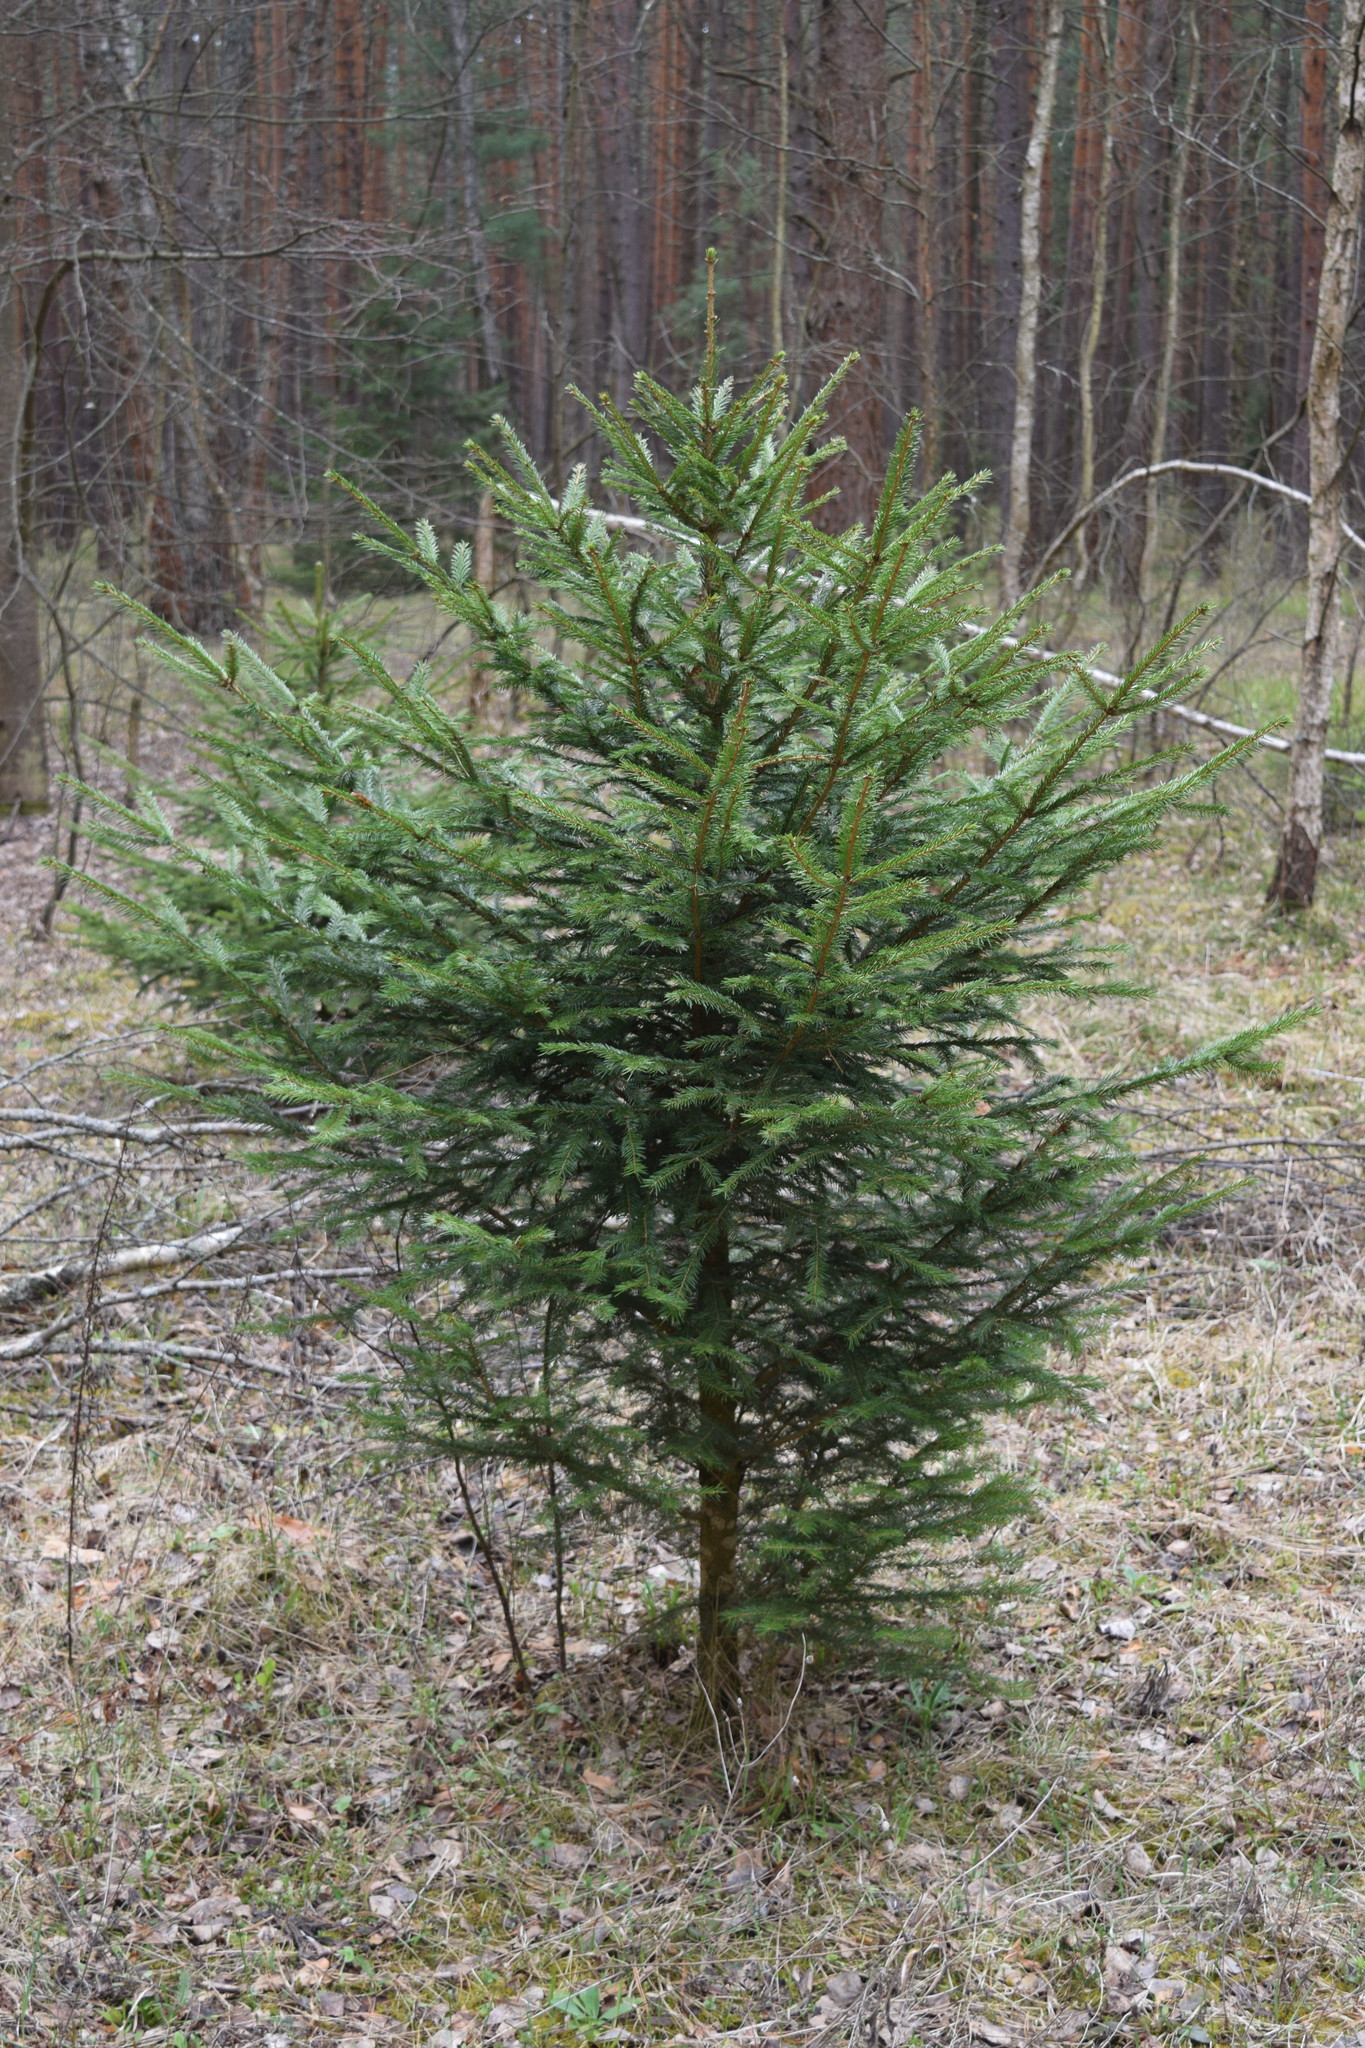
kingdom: Plantae
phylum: Tracheophyta
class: Pinopsida
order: Pinales
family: Pinaceae
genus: Picea
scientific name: Picea abies
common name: Norway spruce
